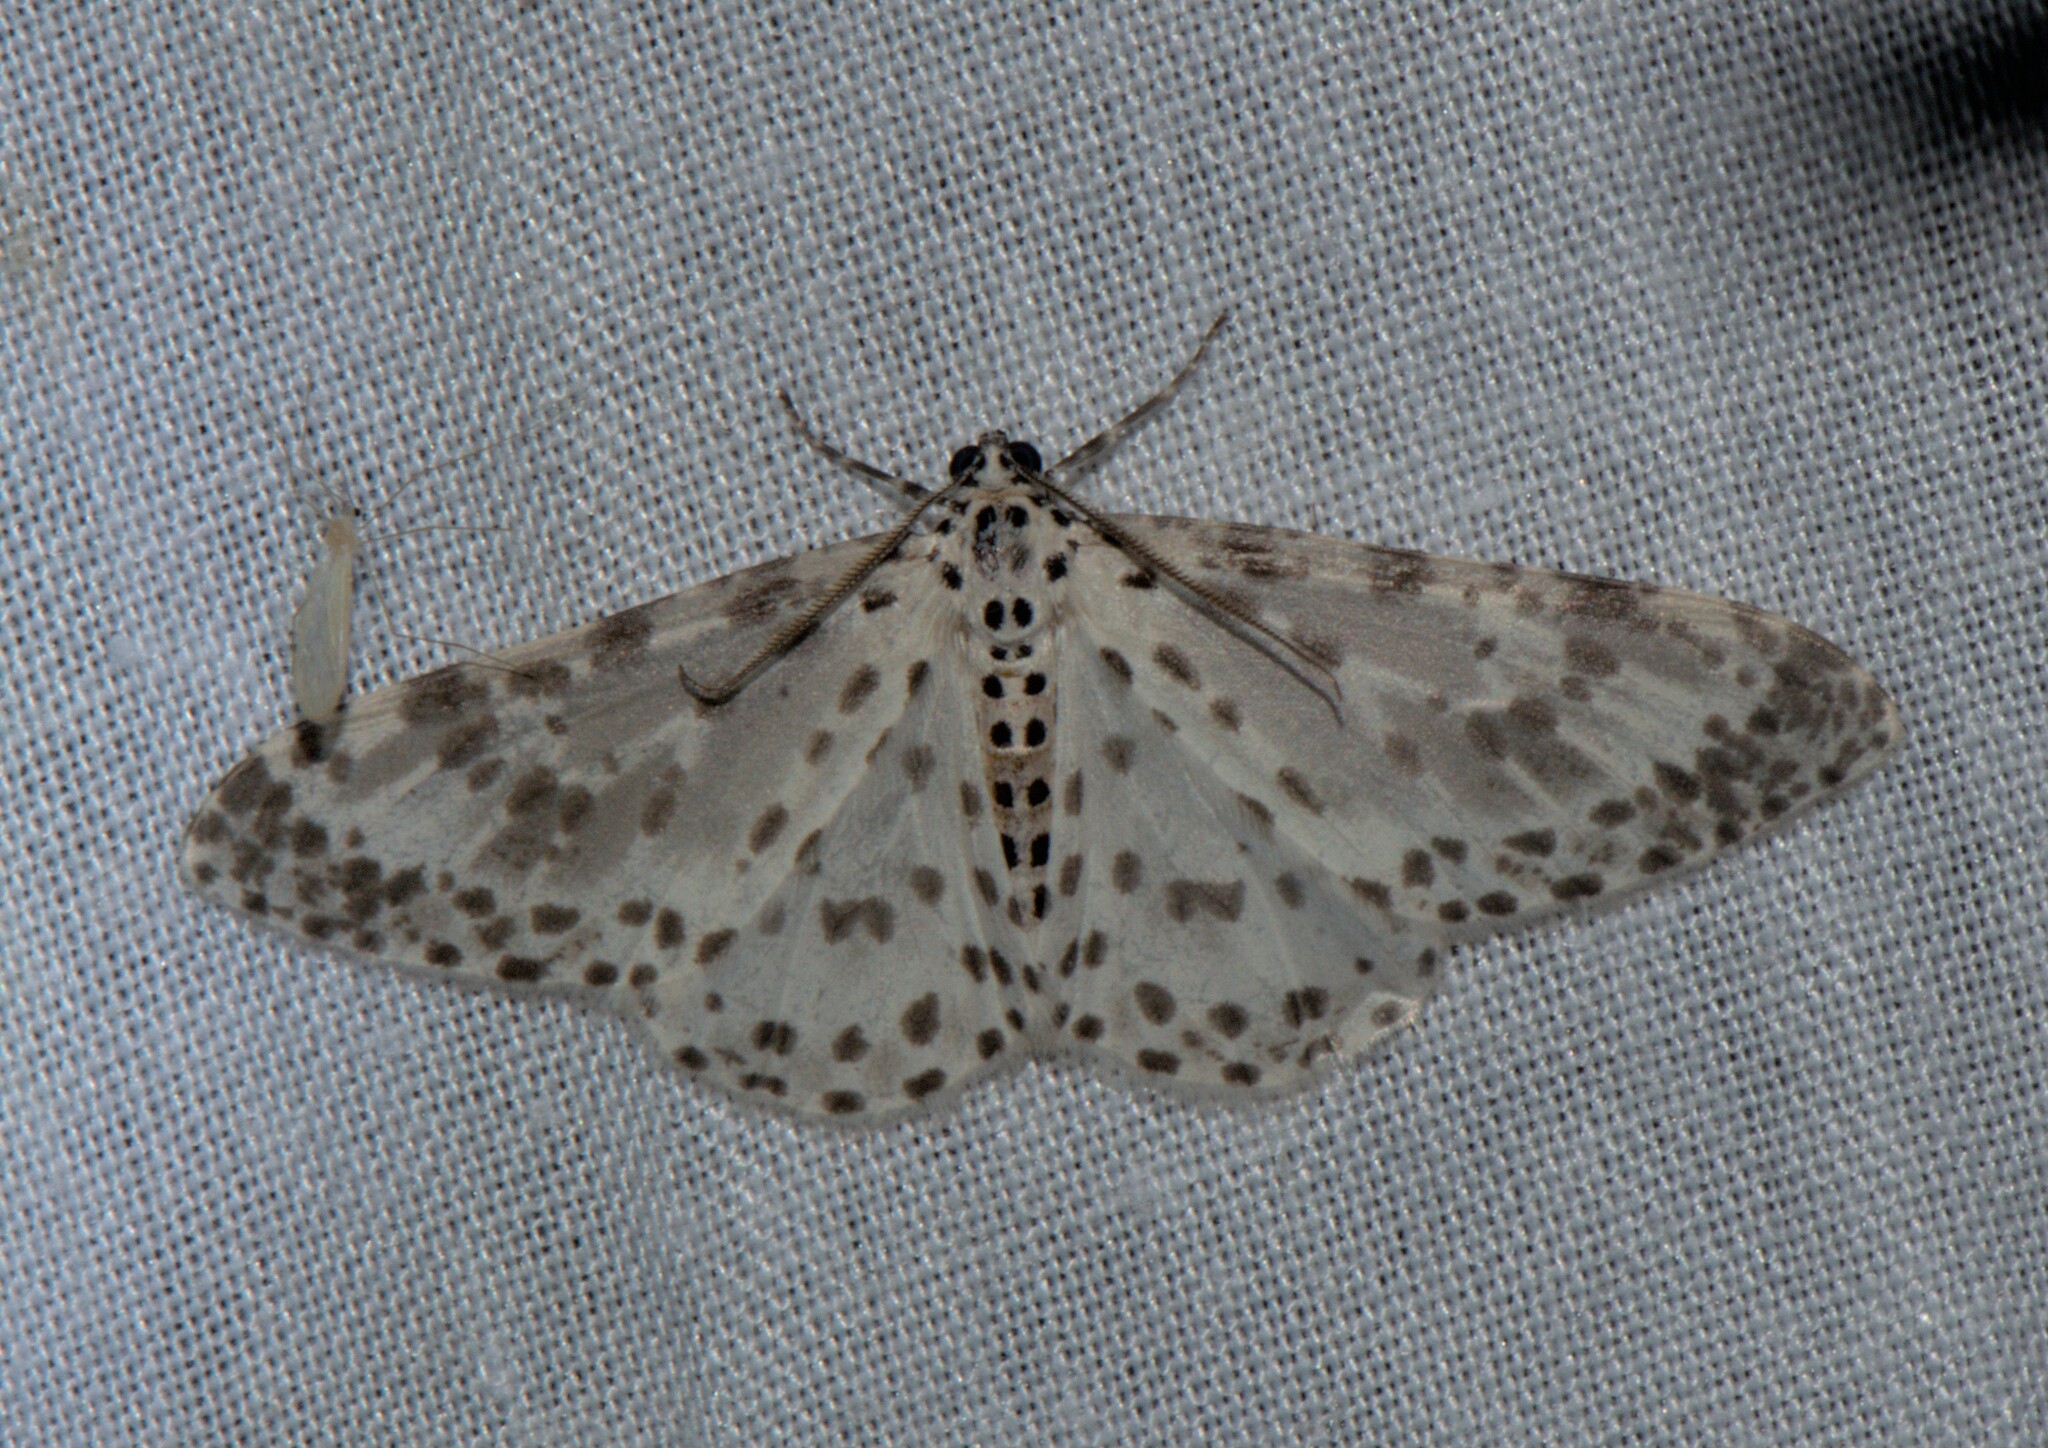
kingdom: Animalia
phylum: Arthropoda
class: Insecta
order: Lepidoptera
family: Geometridae
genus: Xenoplia
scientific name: Xenoplia maculata
